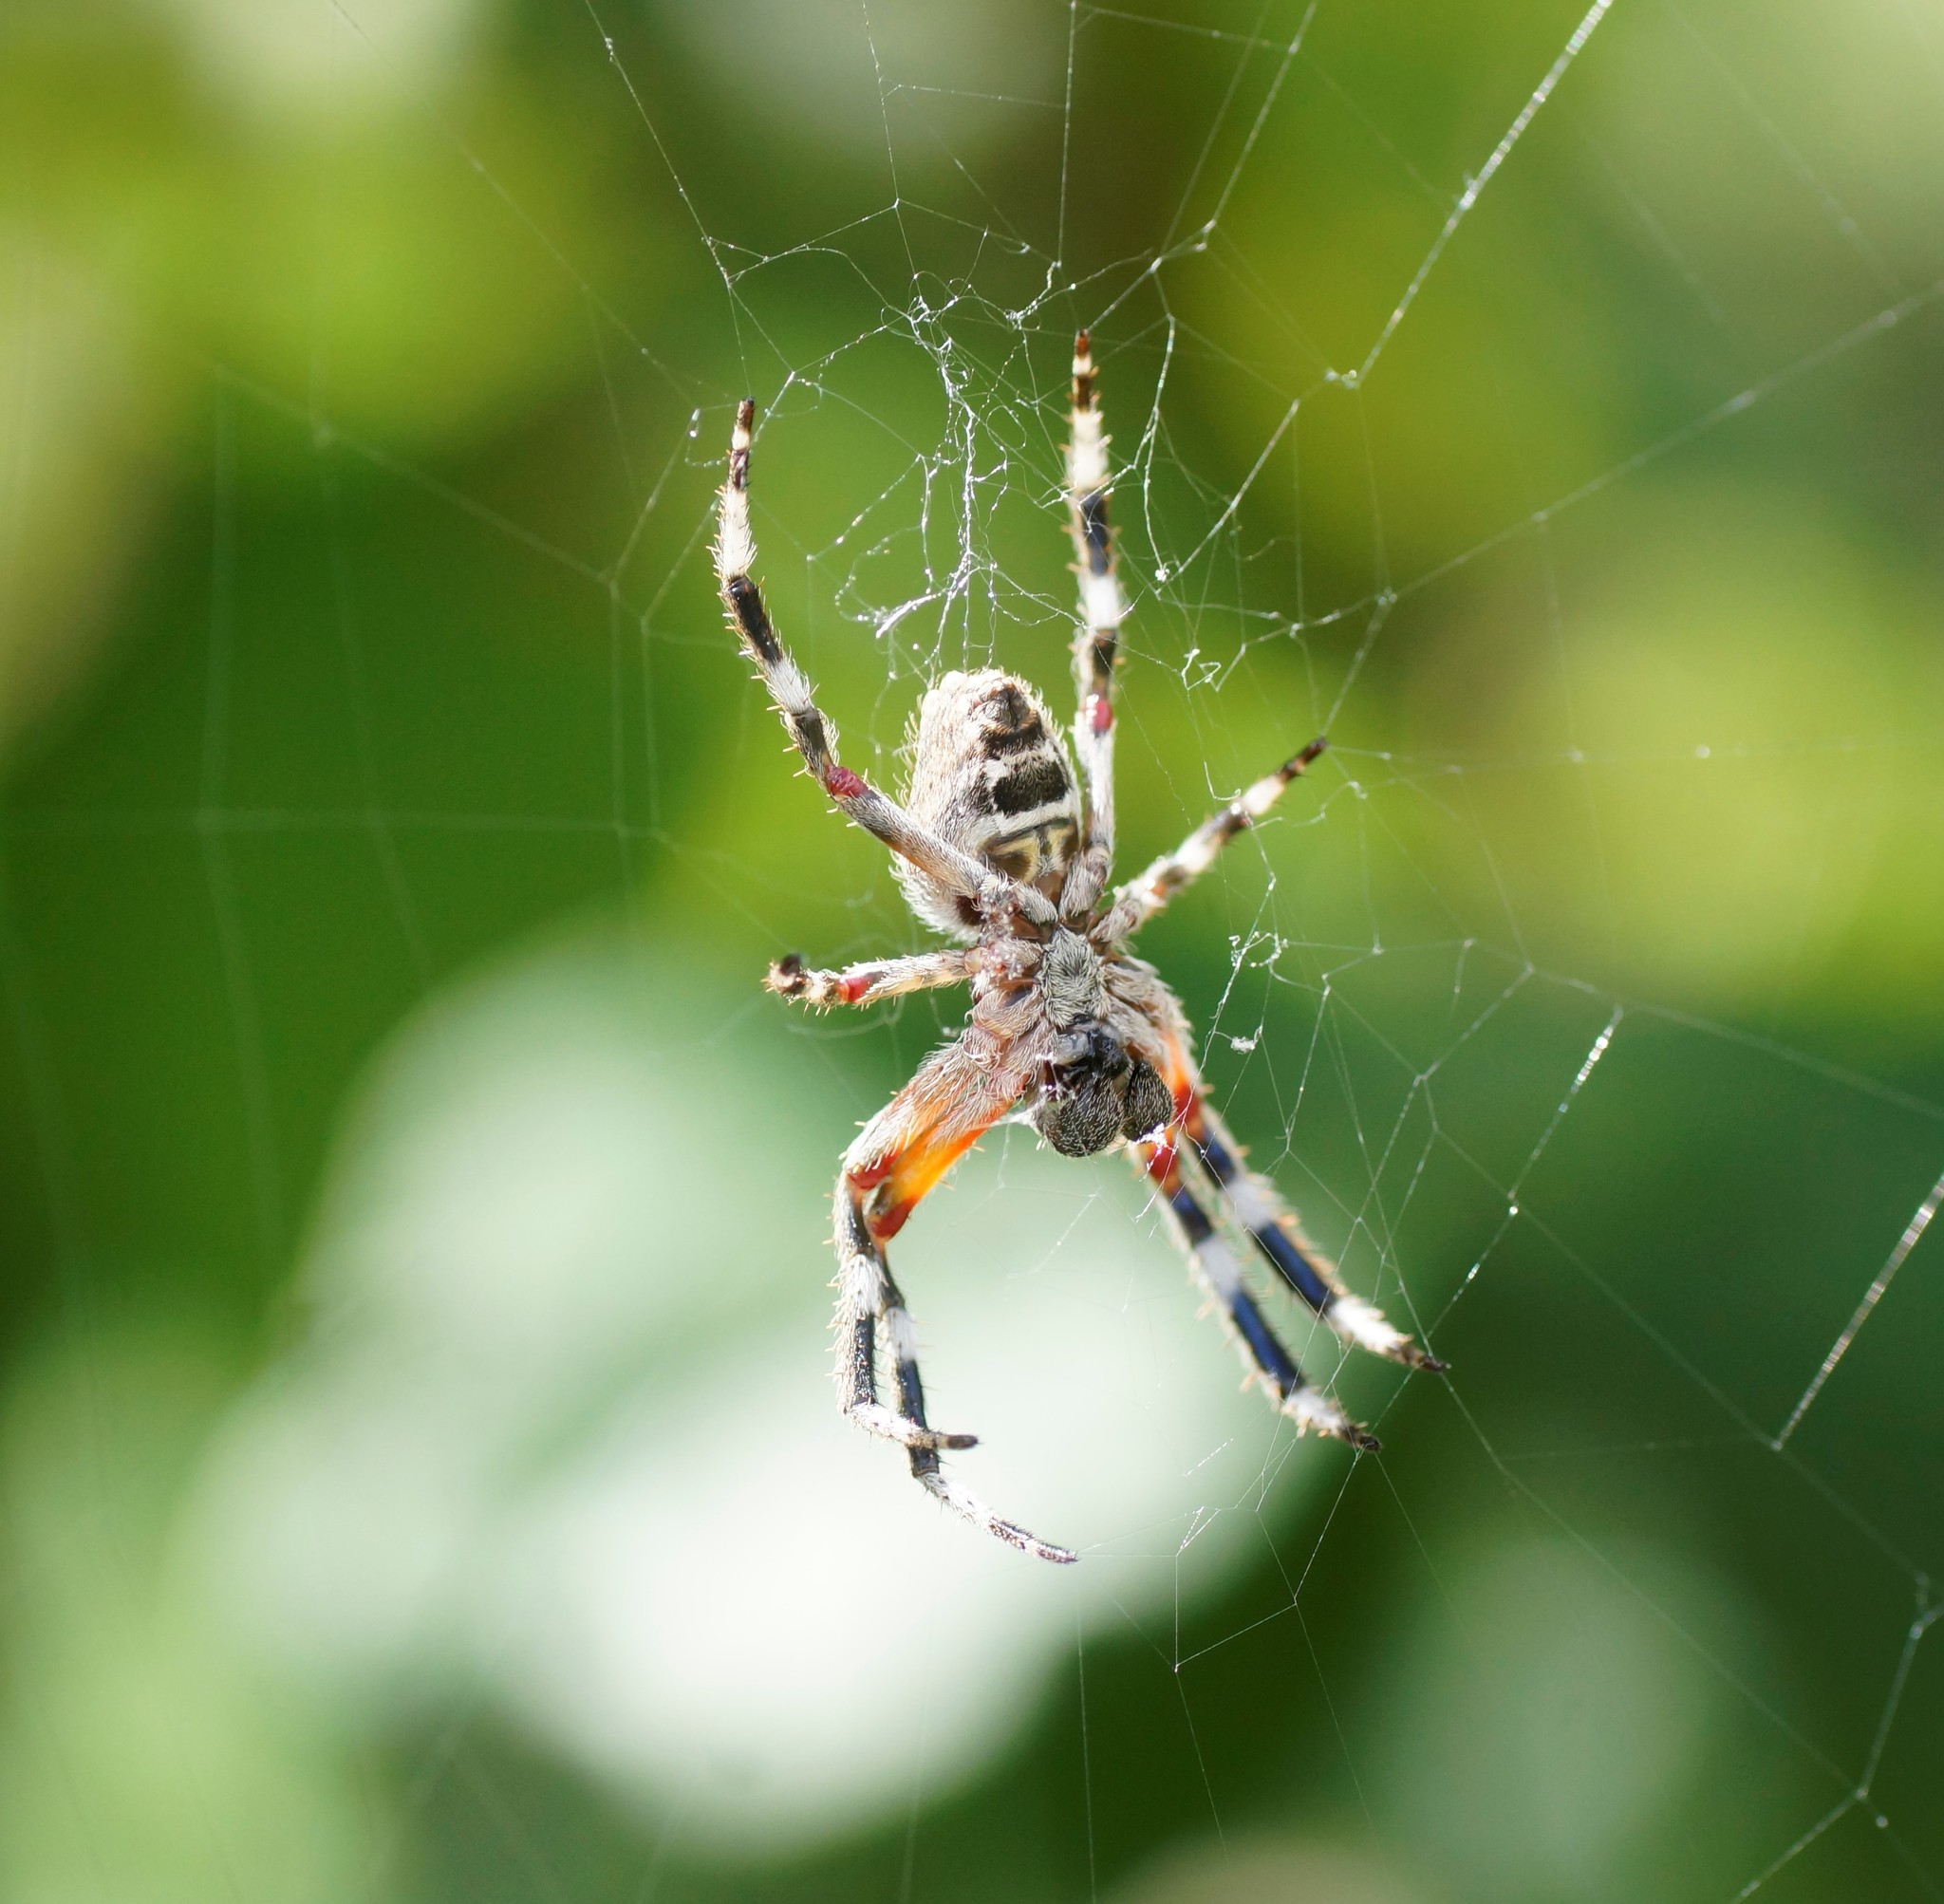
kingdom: Animalia
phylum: Arthropoda
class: Arachnida
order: Araneae
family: Araneidae
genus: Hortophora
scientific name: Hortophora biapicata
